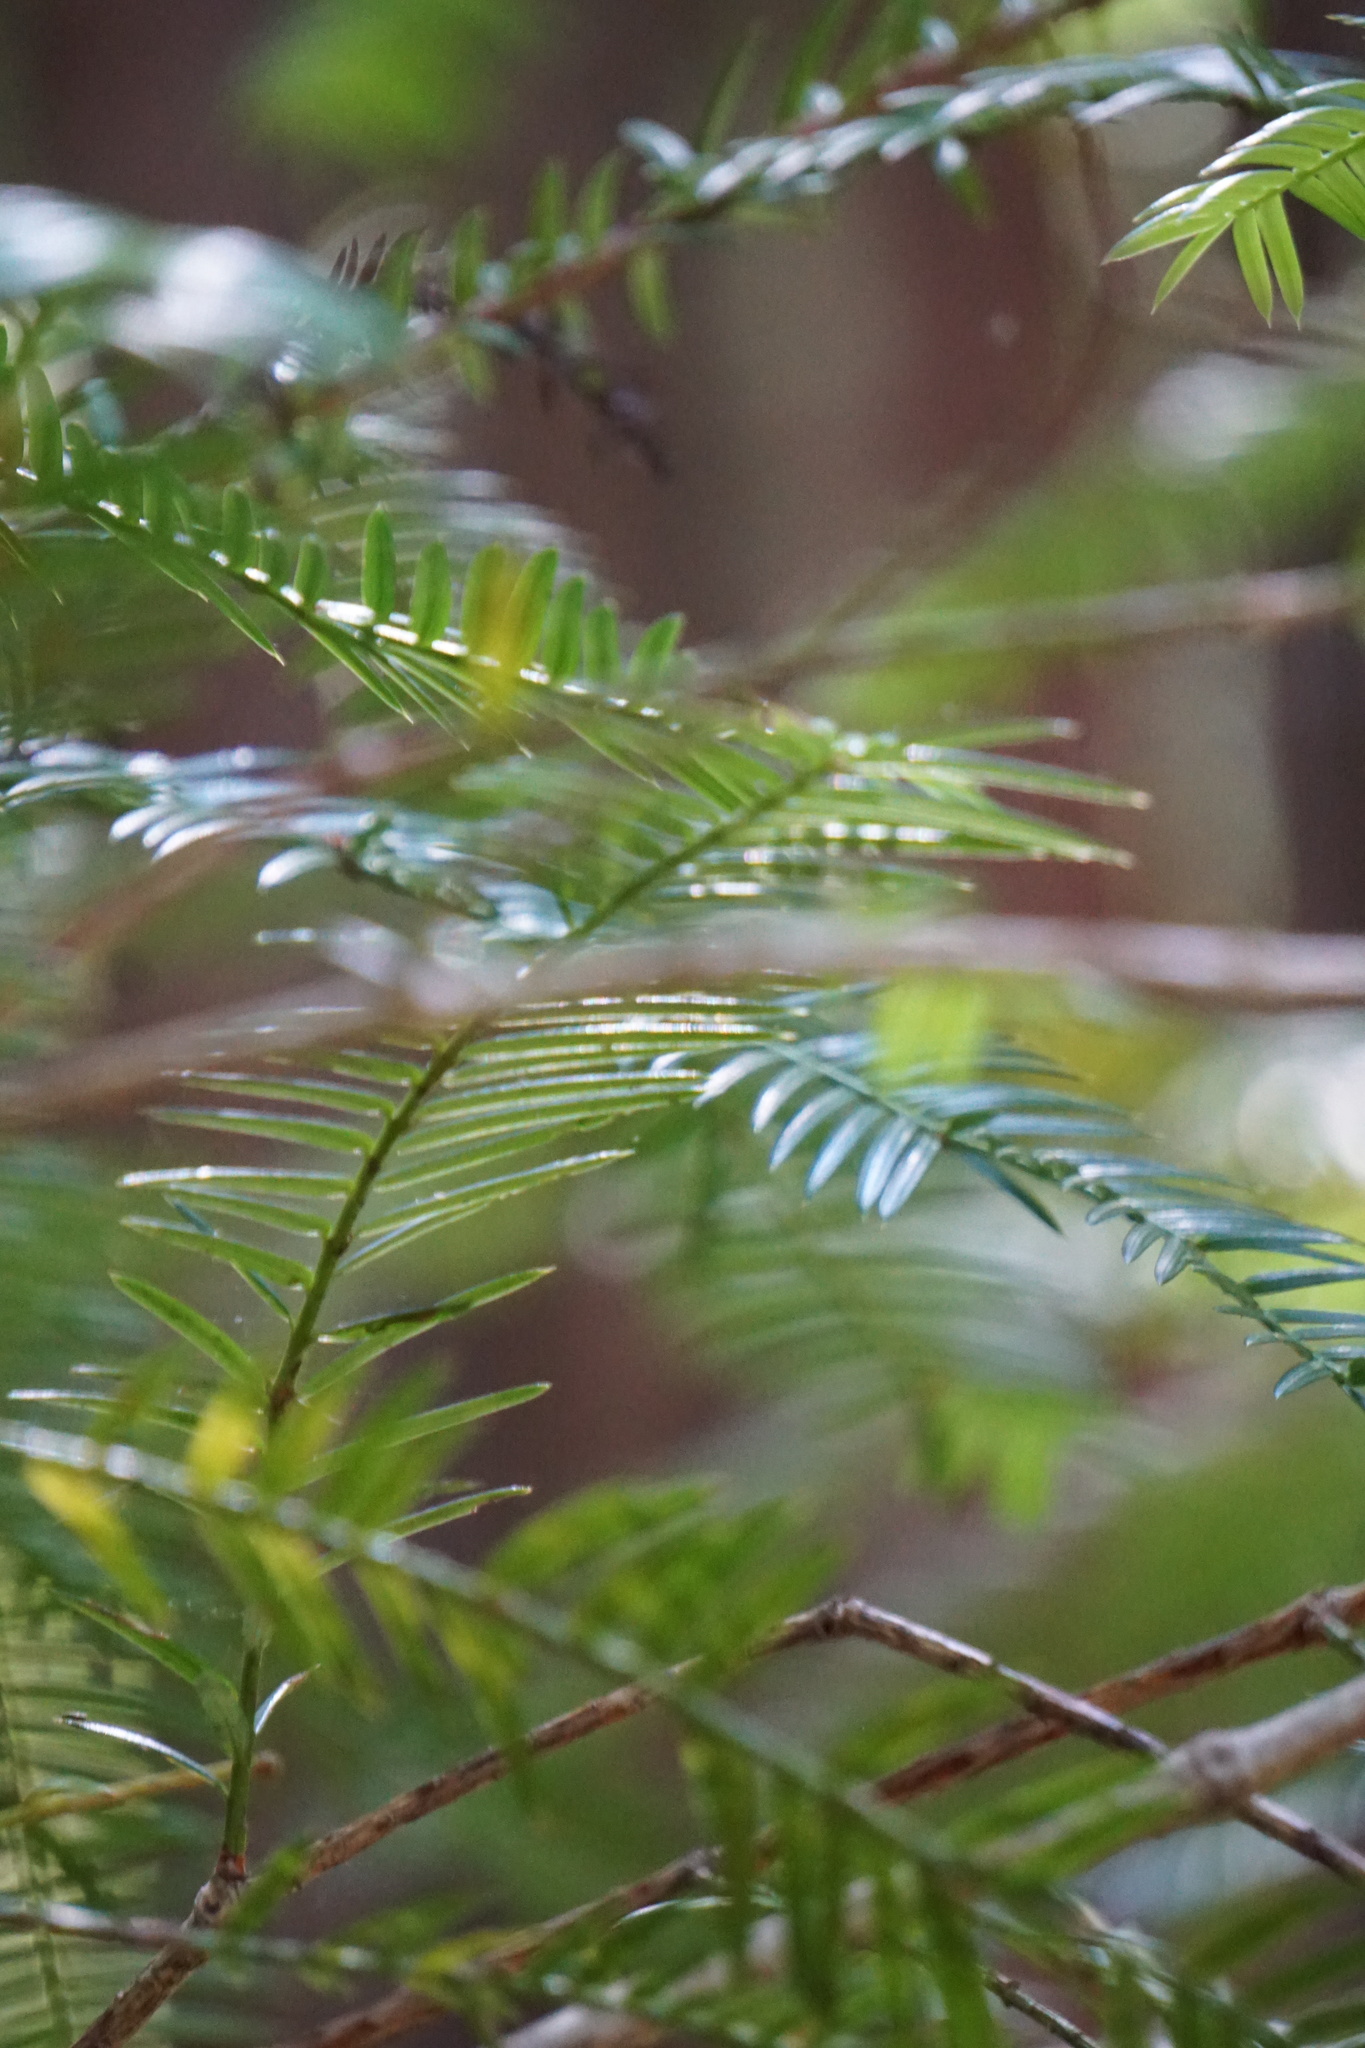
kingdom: Plantae
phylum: Tracheophyta
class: Pinopsida
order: Pinales
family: Taxaceae
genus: Torreya
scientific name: Torreya californica
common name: California torreya
